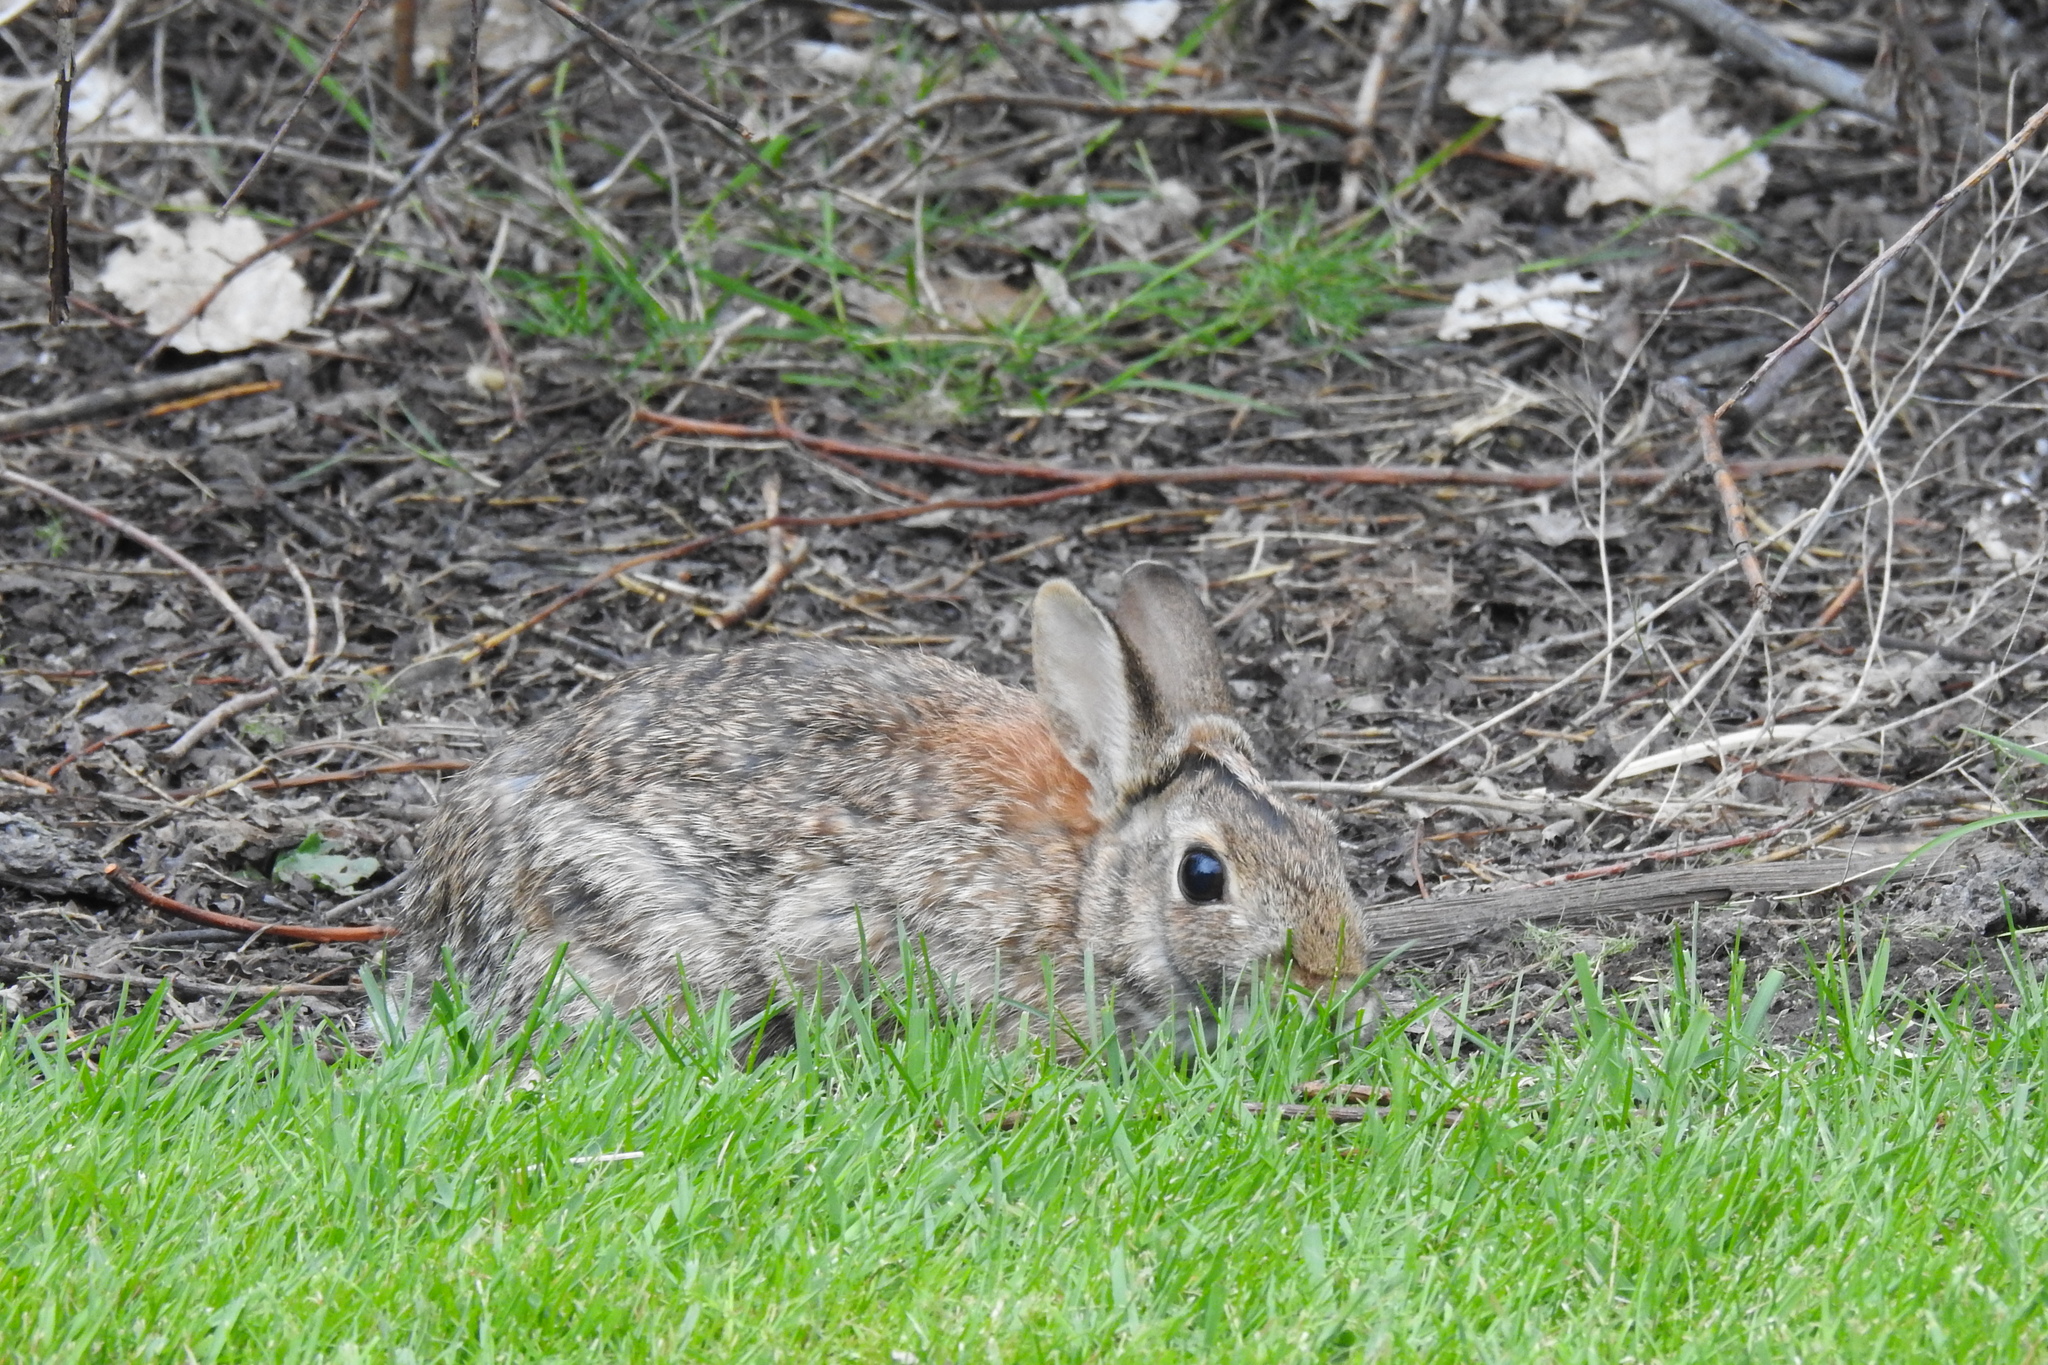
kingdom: Animalia
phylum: Chordata
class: Mammalia
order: Lagomorpha
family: Leporidae
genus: Sylvilagus
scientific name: Sylvilagus floridanus
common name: Eastern cottontail
